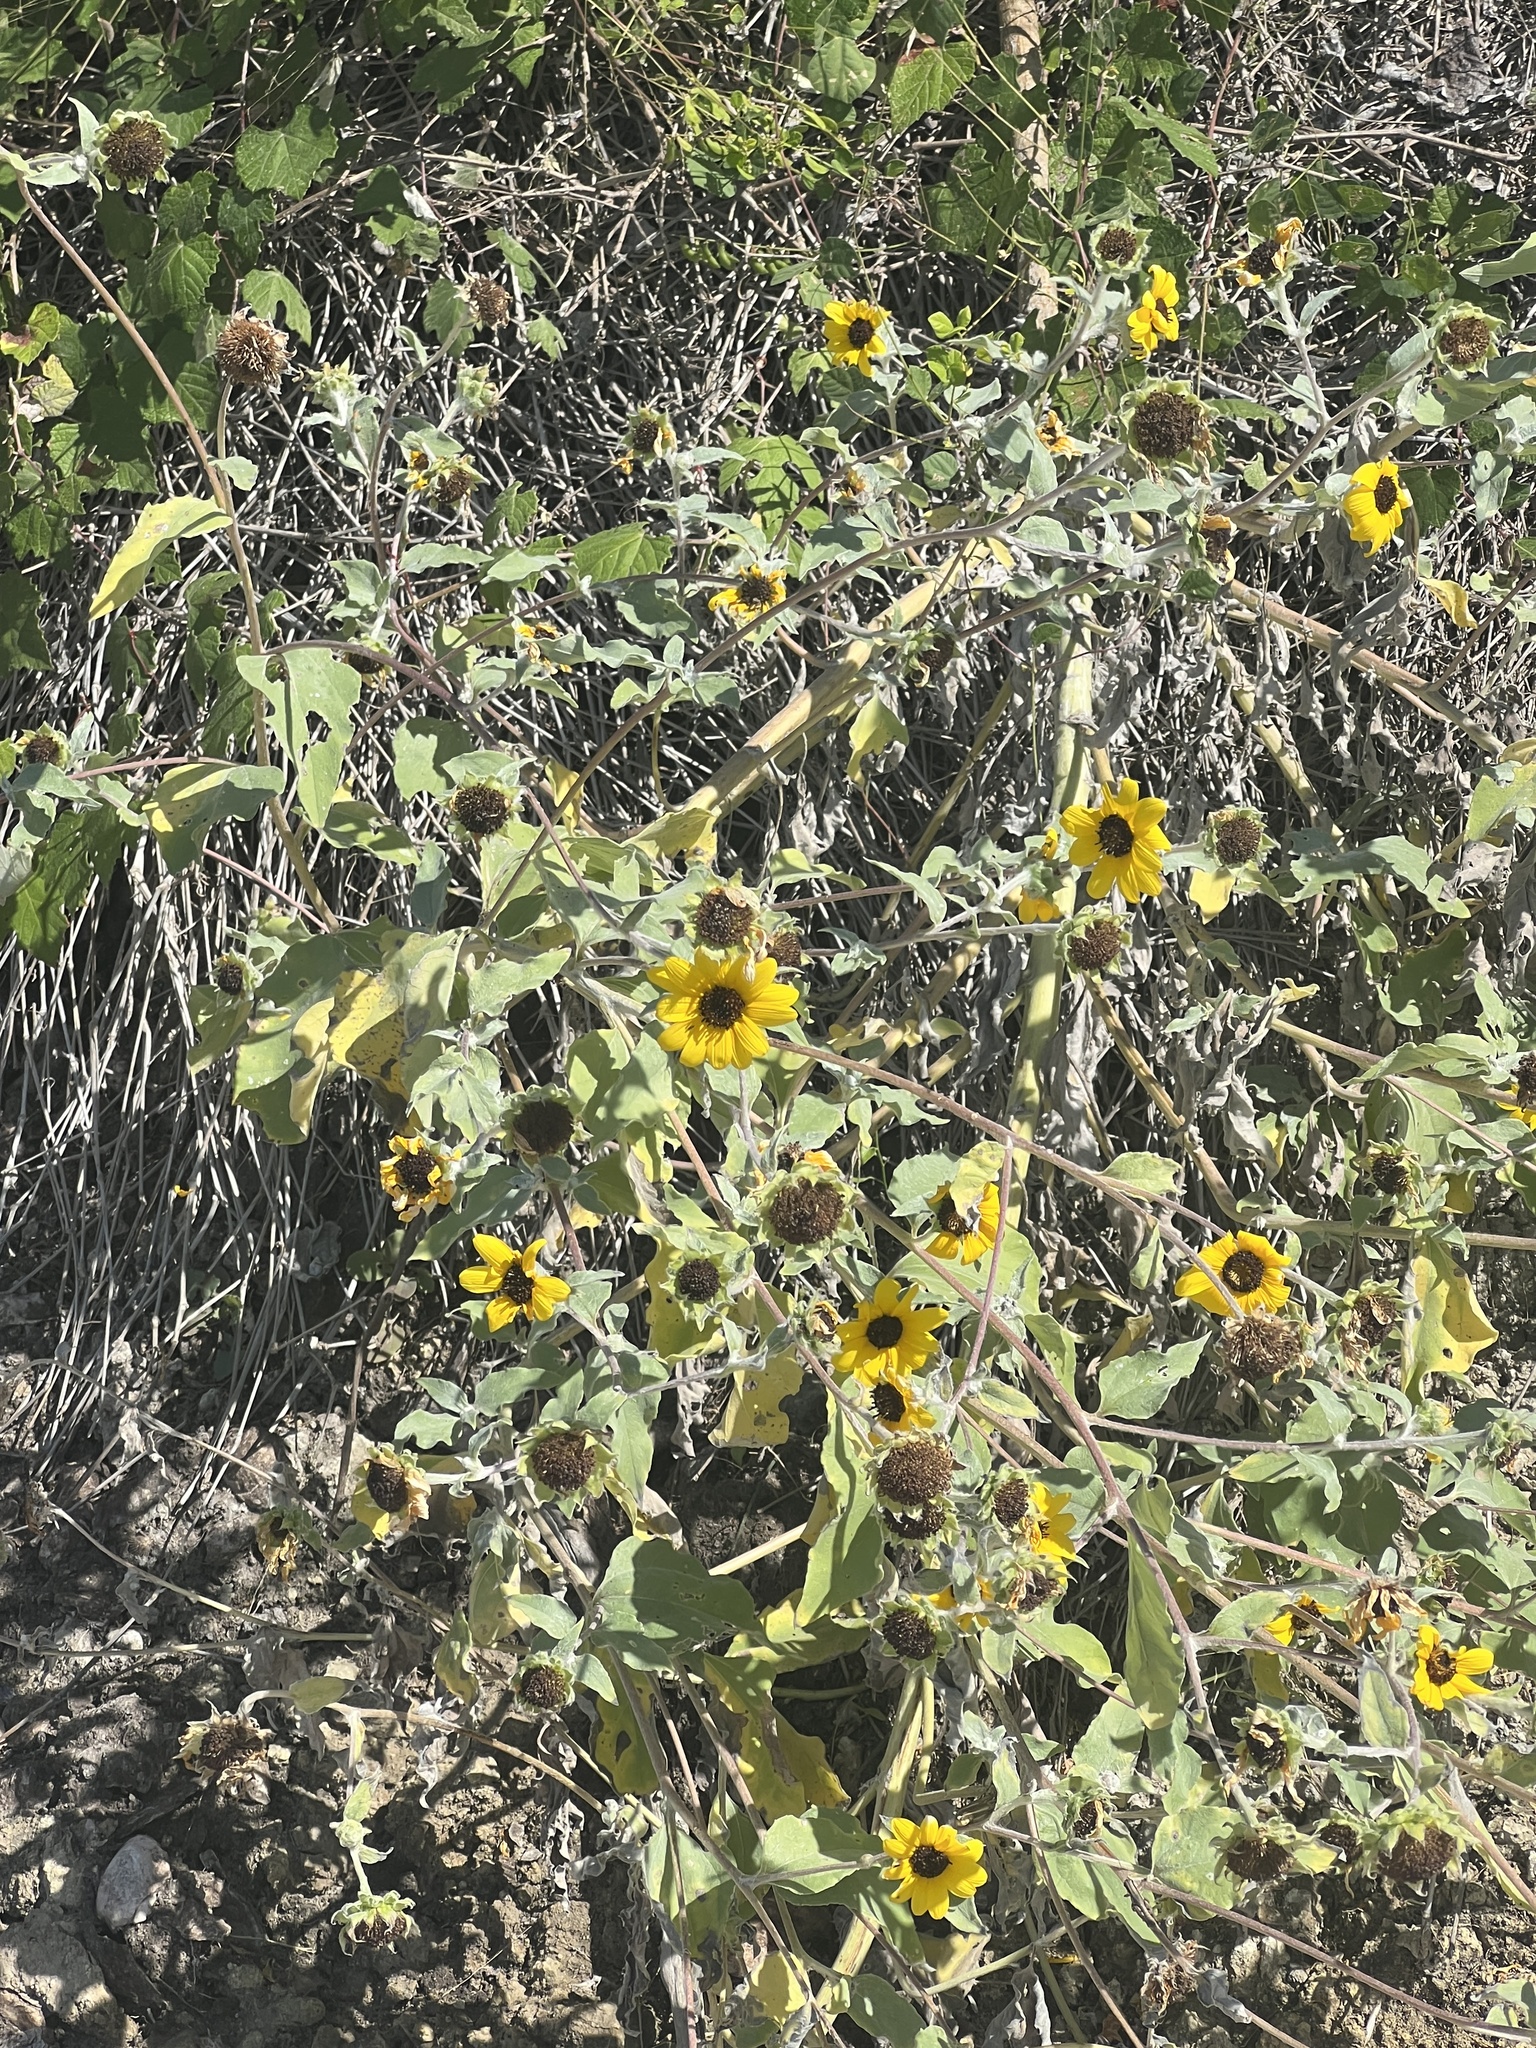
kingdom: Plantae
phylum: Tracheophyta
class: Magnoliopsida
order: Asterales
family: Asteraceae
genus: Helianthus
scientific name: Helianthus argophyllus
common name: Silverleaf sunflower
